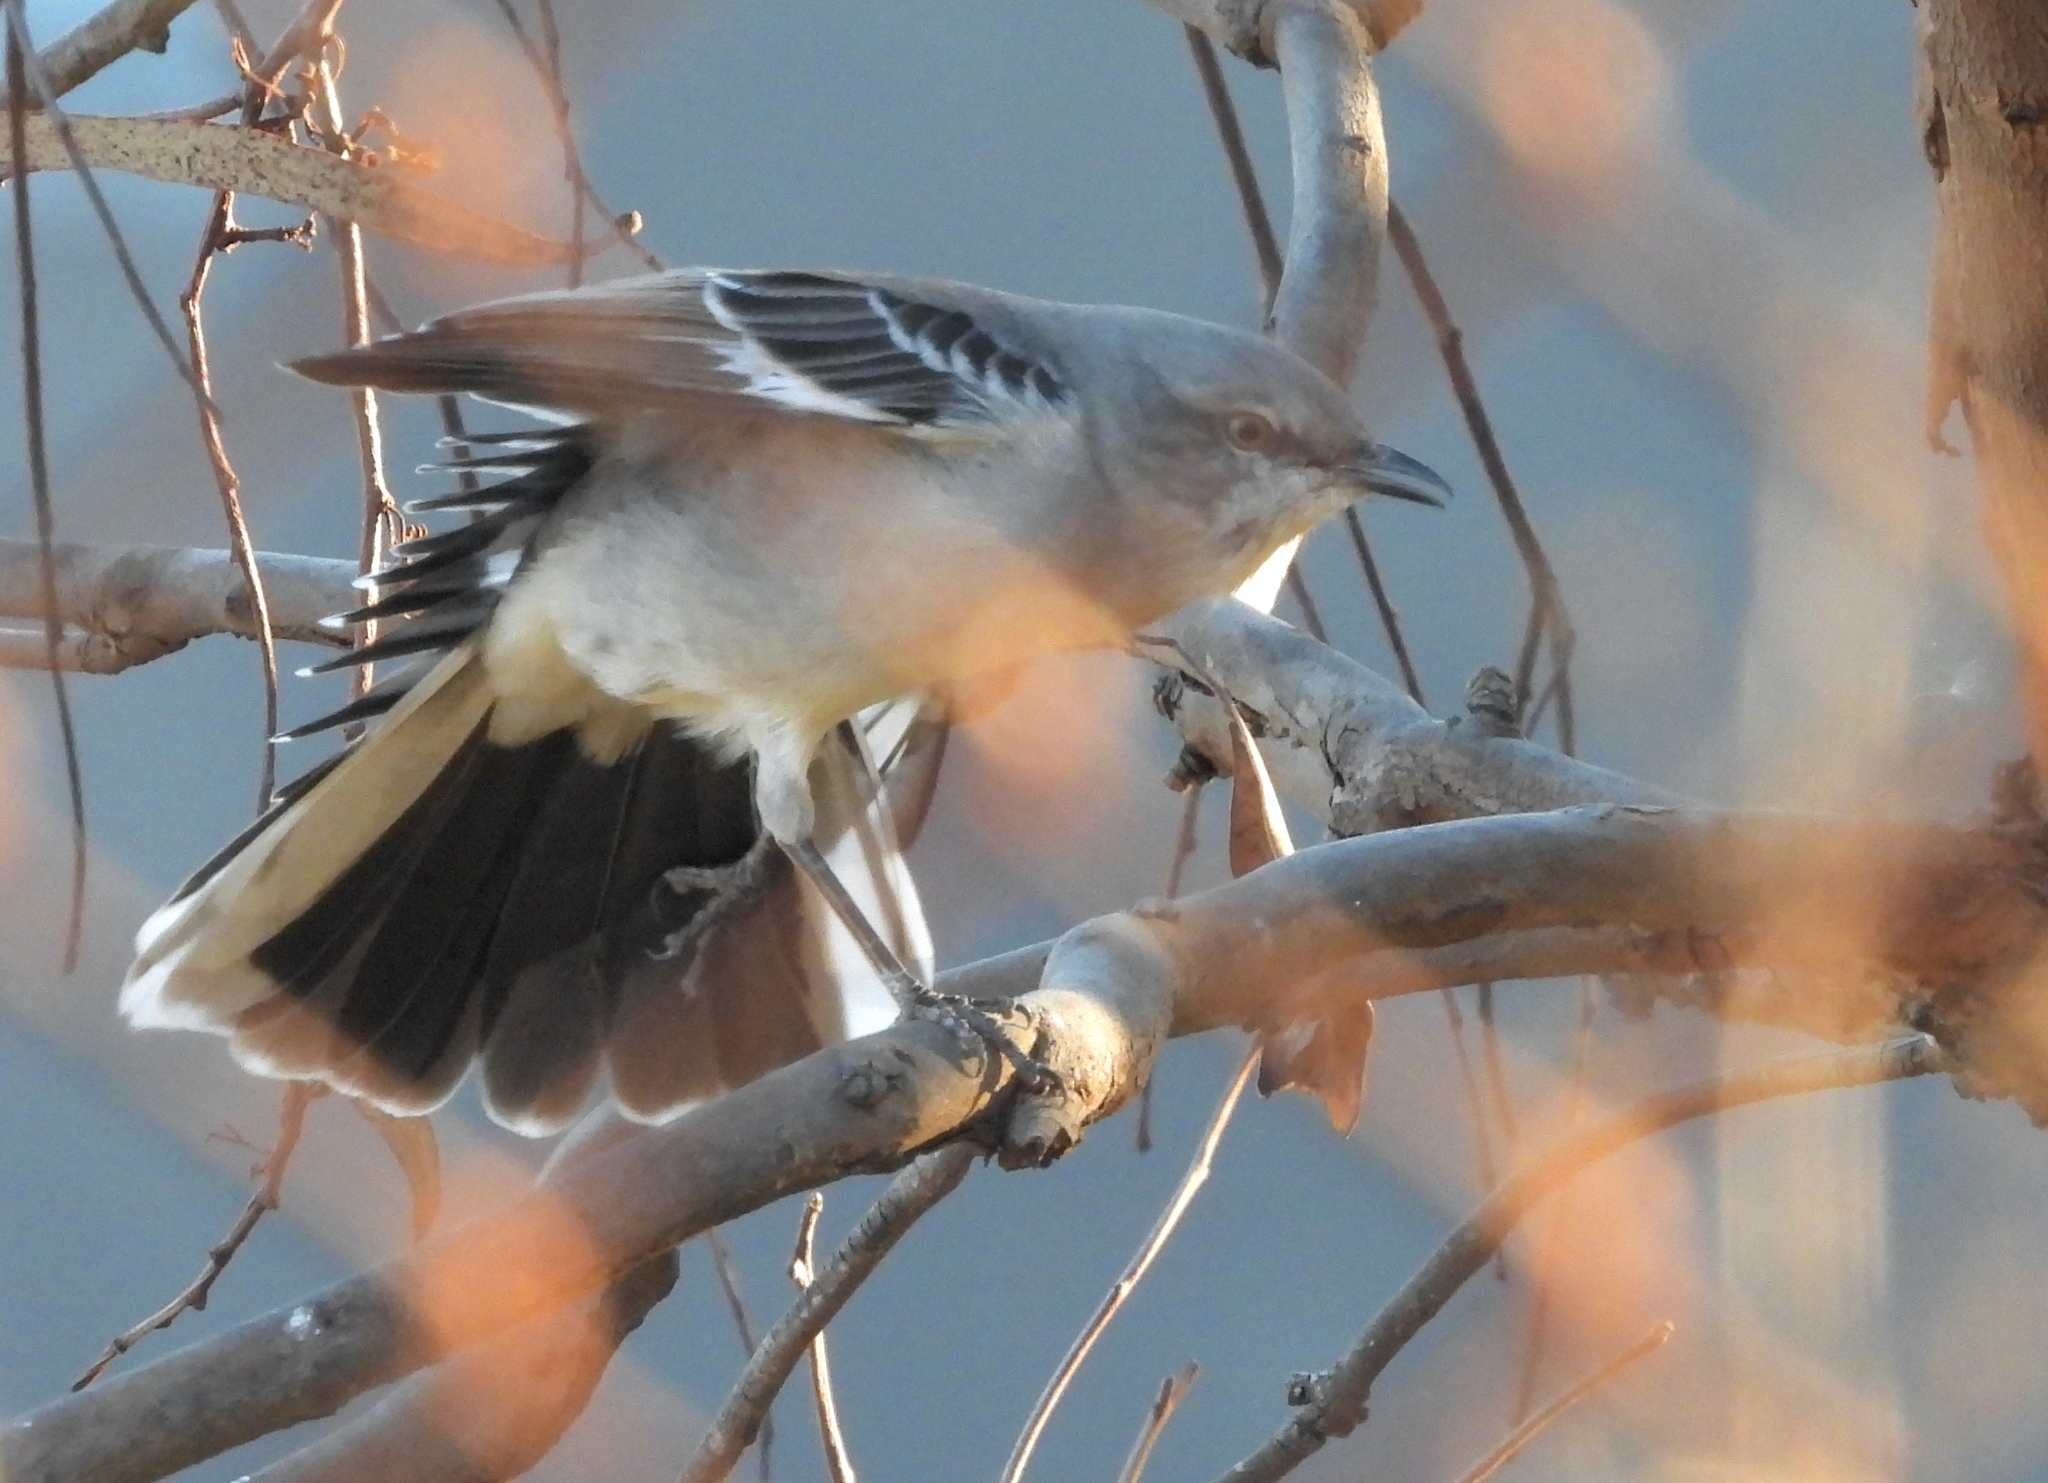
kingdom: Animalia
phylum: Chordata
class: Aves
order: Passeriformes
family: Mimidae
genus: Mimus
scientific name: Mimus polyglottos
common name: Northern mockingbird
